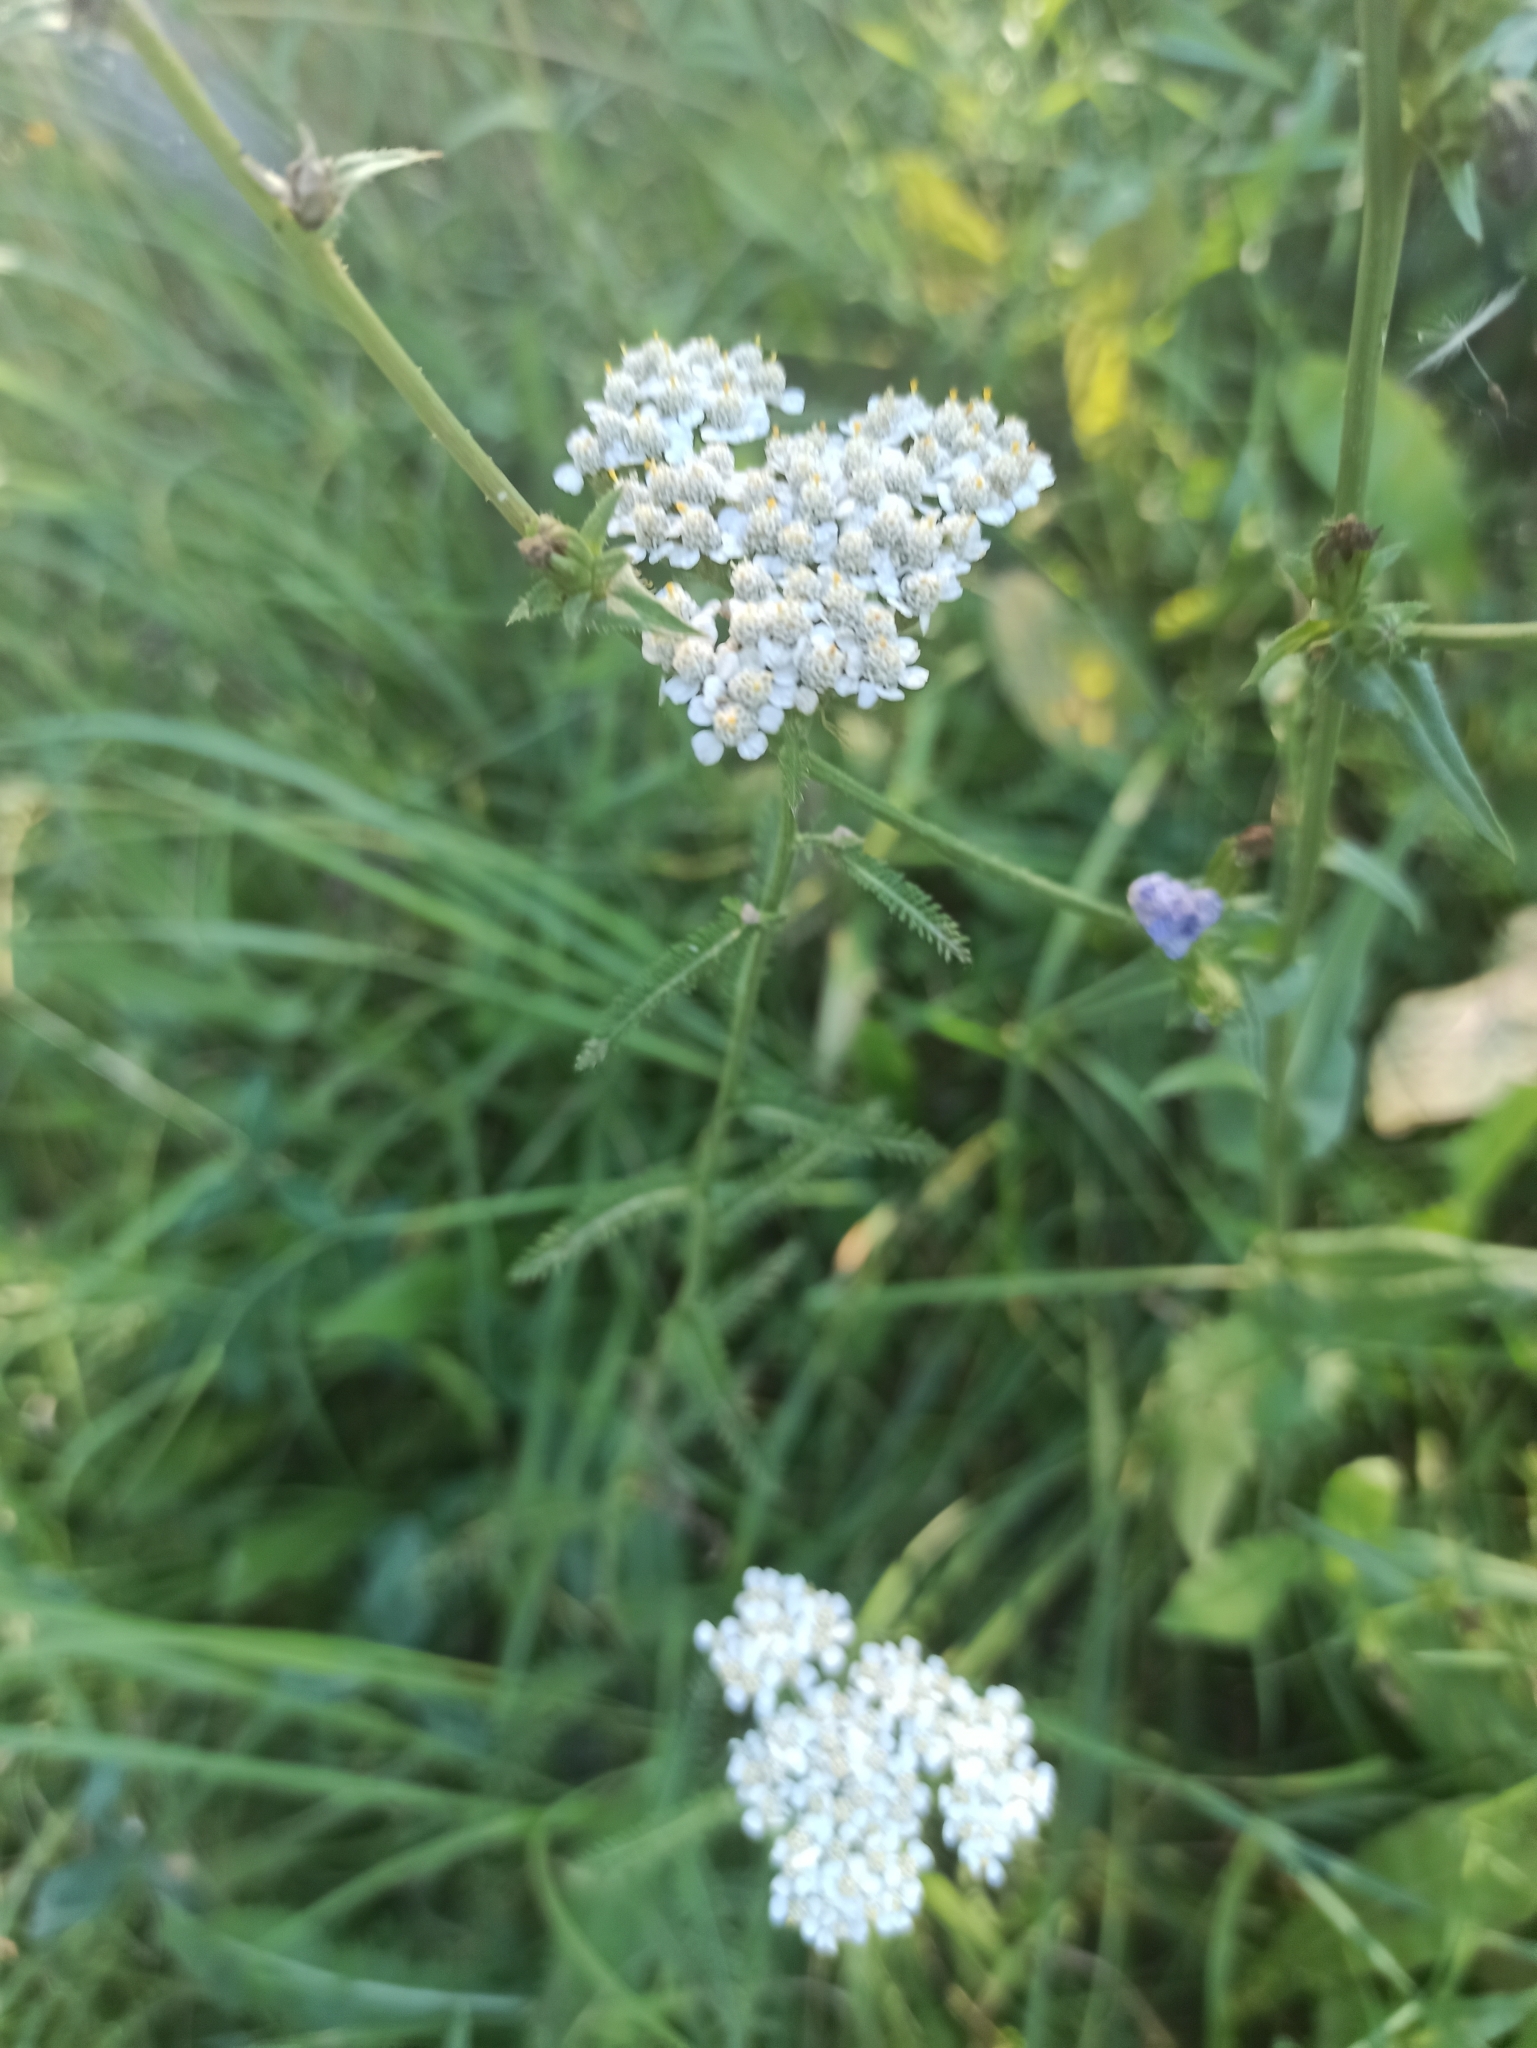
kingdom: Plantae
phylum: Tracheophyta
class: Magnoliopsida
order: Asterales
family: Asteraceae
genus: Achillea
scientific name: Achillea millefolium
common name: Yarrow
